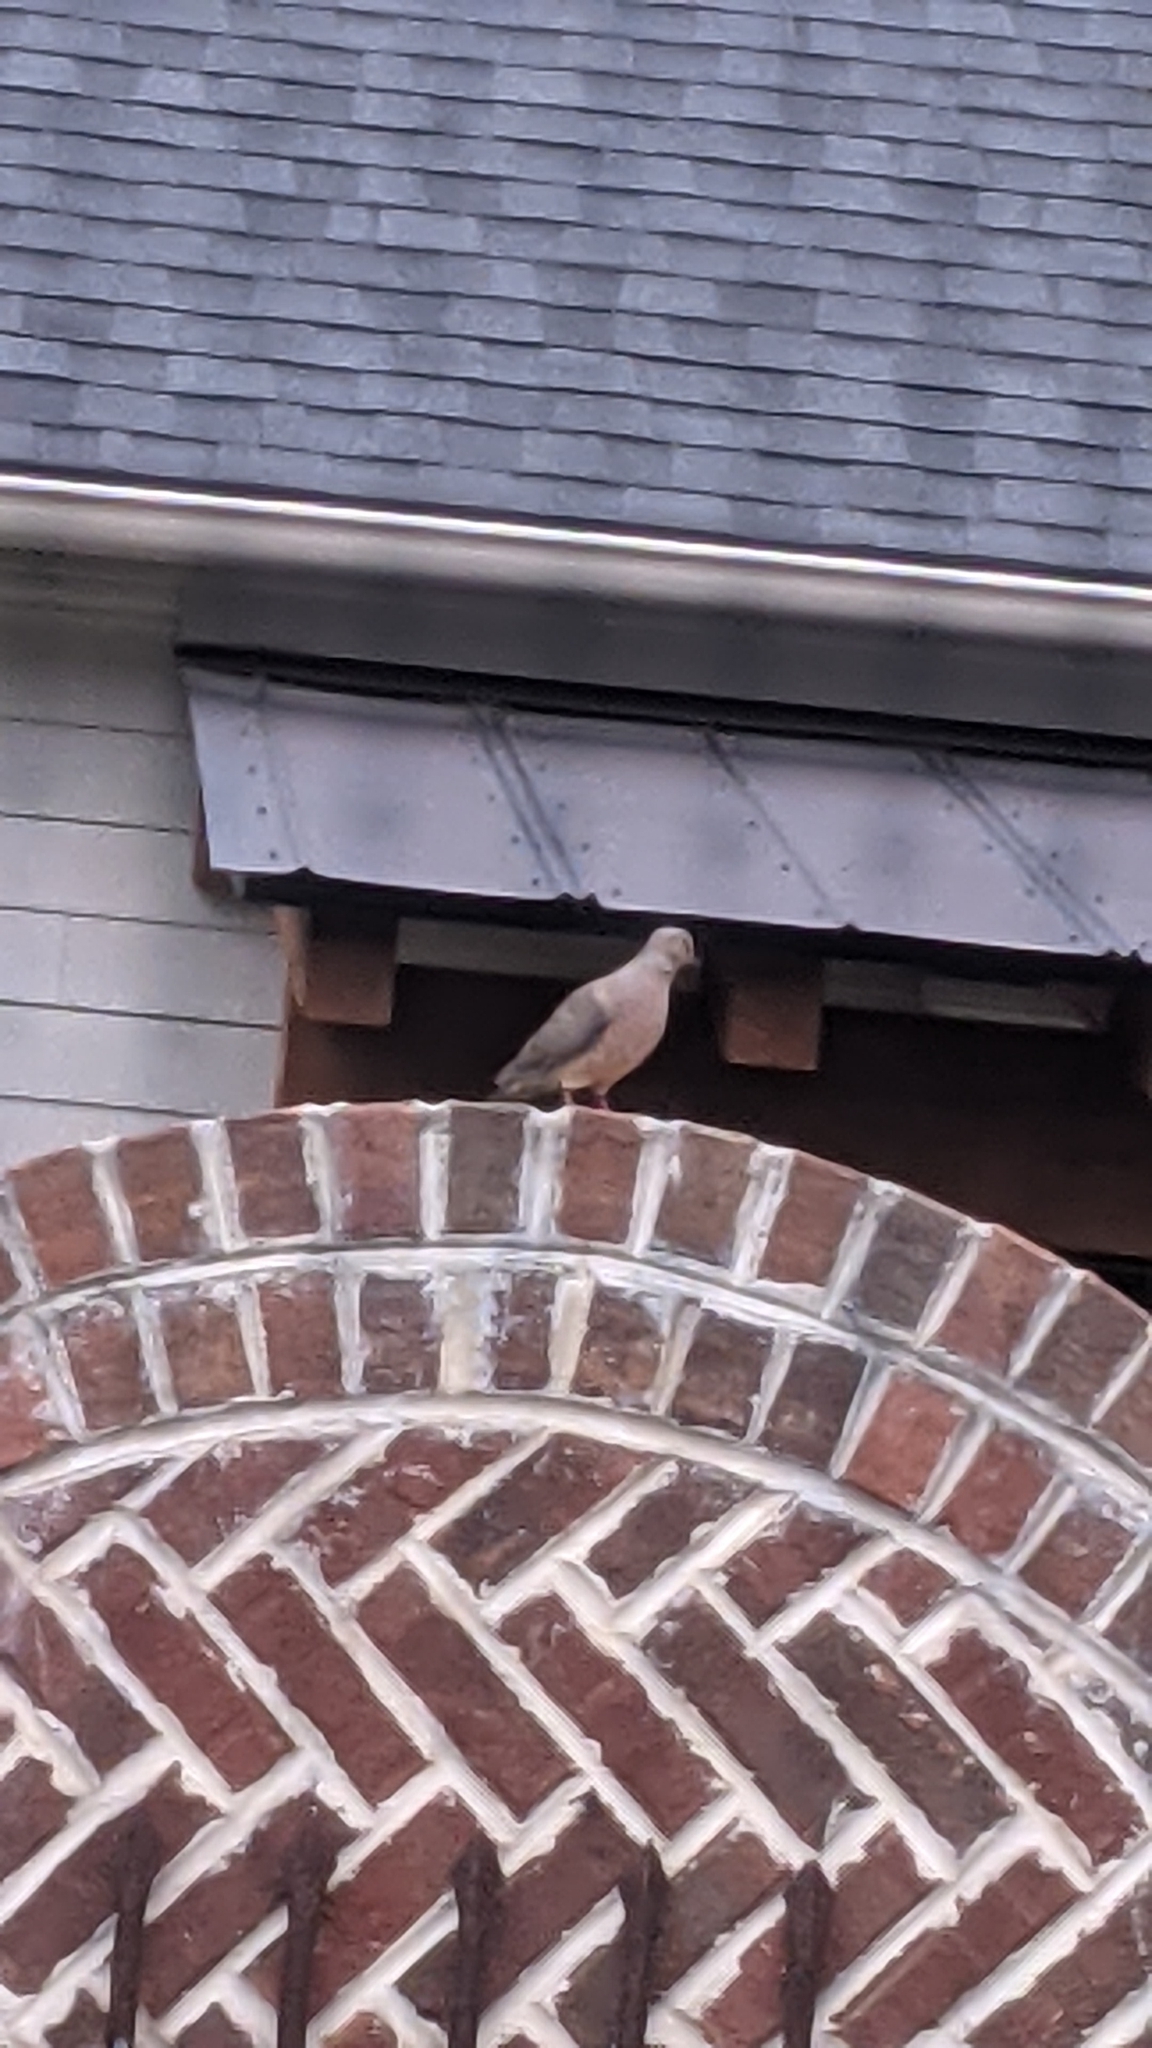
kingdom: Animalia
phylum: Chordata
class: Aves
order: Columbiformes
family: Columbidae
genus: Zenaida
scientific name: Zenaida macroura
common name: Mourning dove
